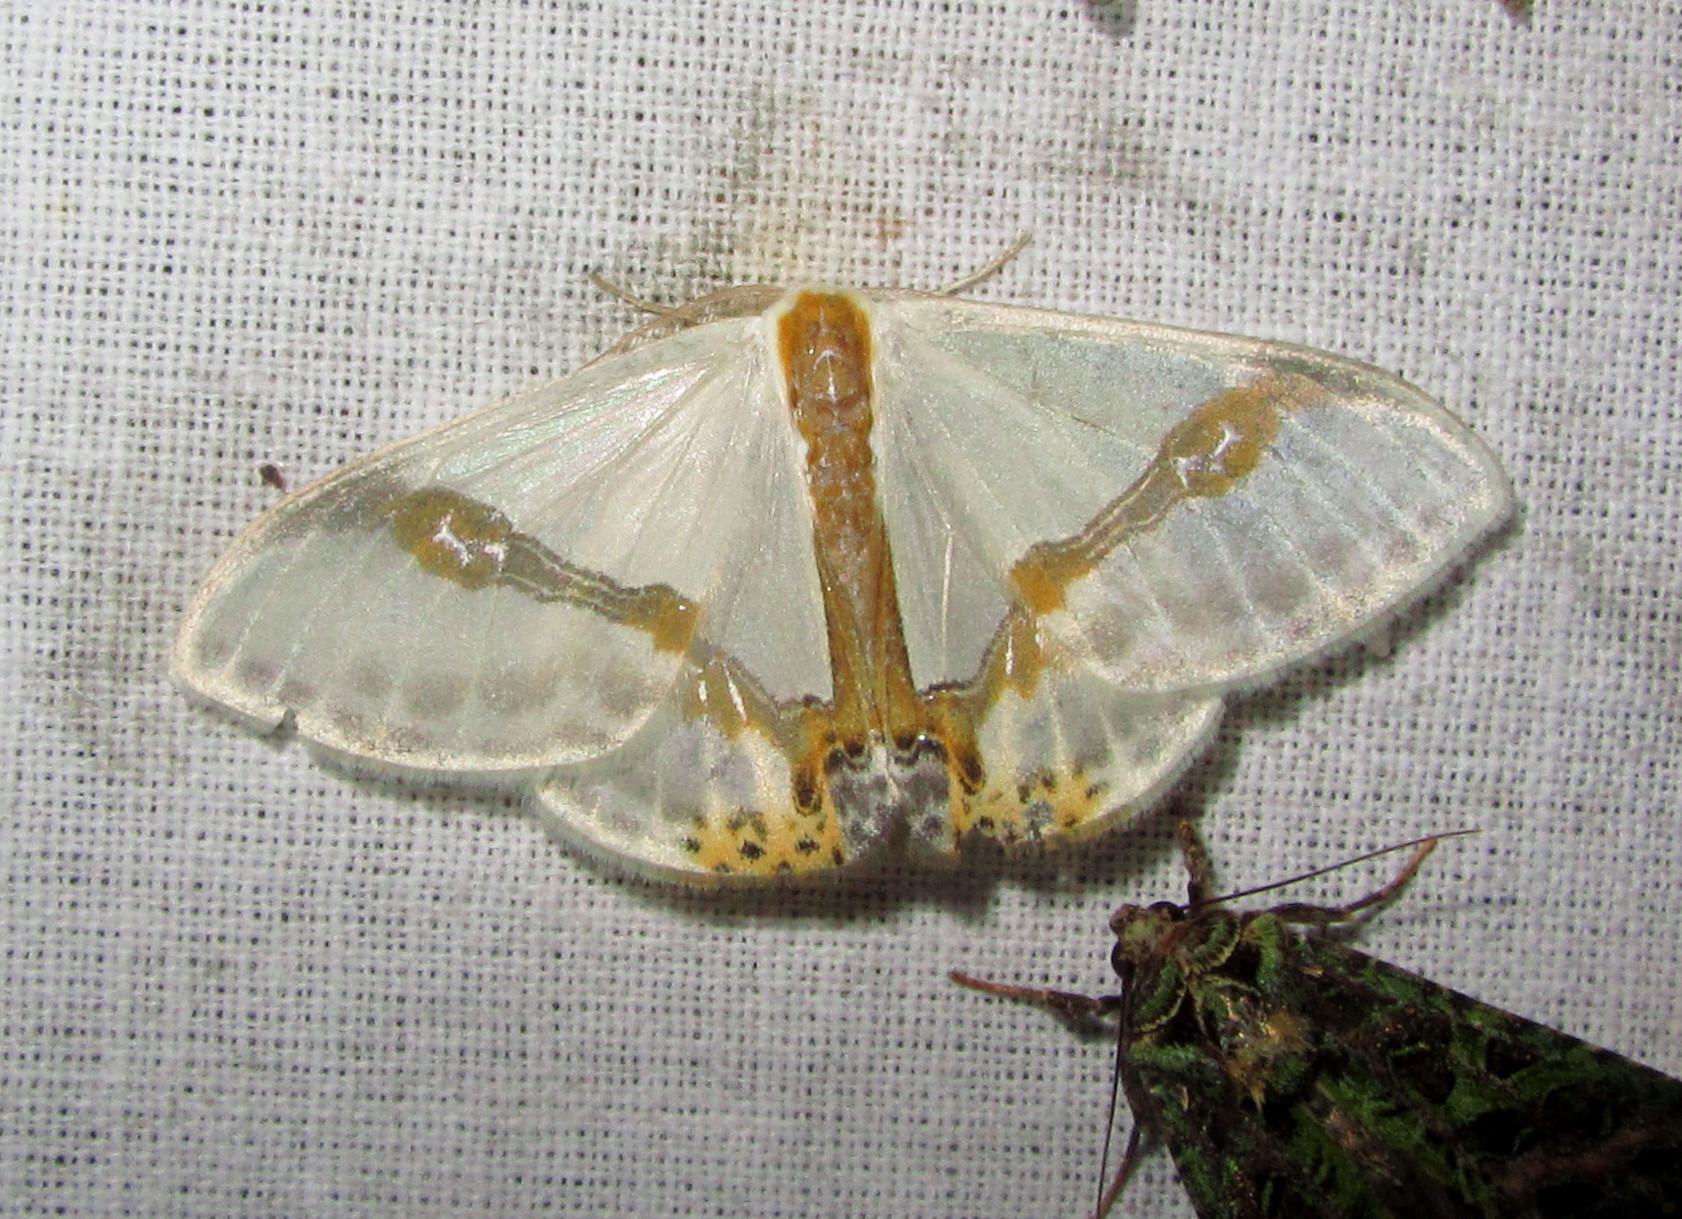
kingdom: Animalia
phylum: Arthropoda
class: Insecta
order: Lepidoptera
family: Drepanidae
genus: Macrocilix
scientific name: Macrocilix mysticata
